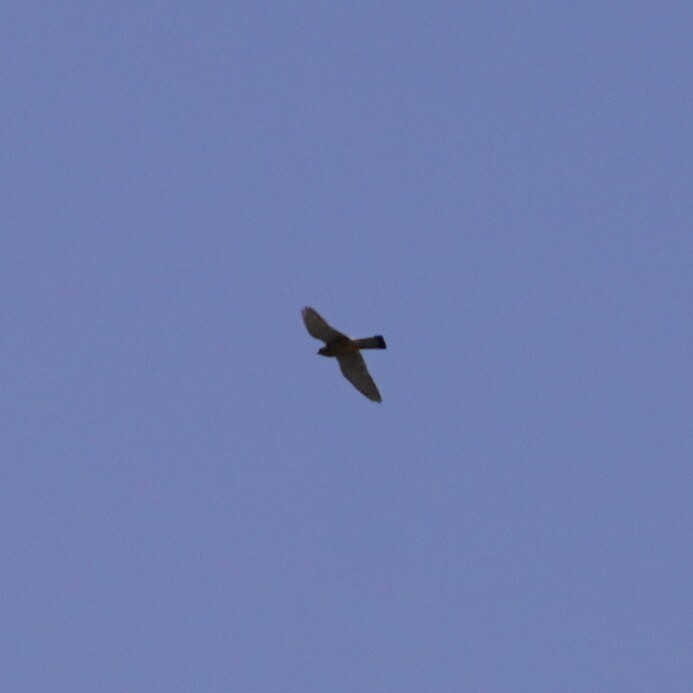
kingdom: Animalia
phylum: Chordata
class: Aves
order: Falconiformes
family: Falconidae
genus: Falco
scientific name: Falco tinnunculus
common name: Common kestrel
